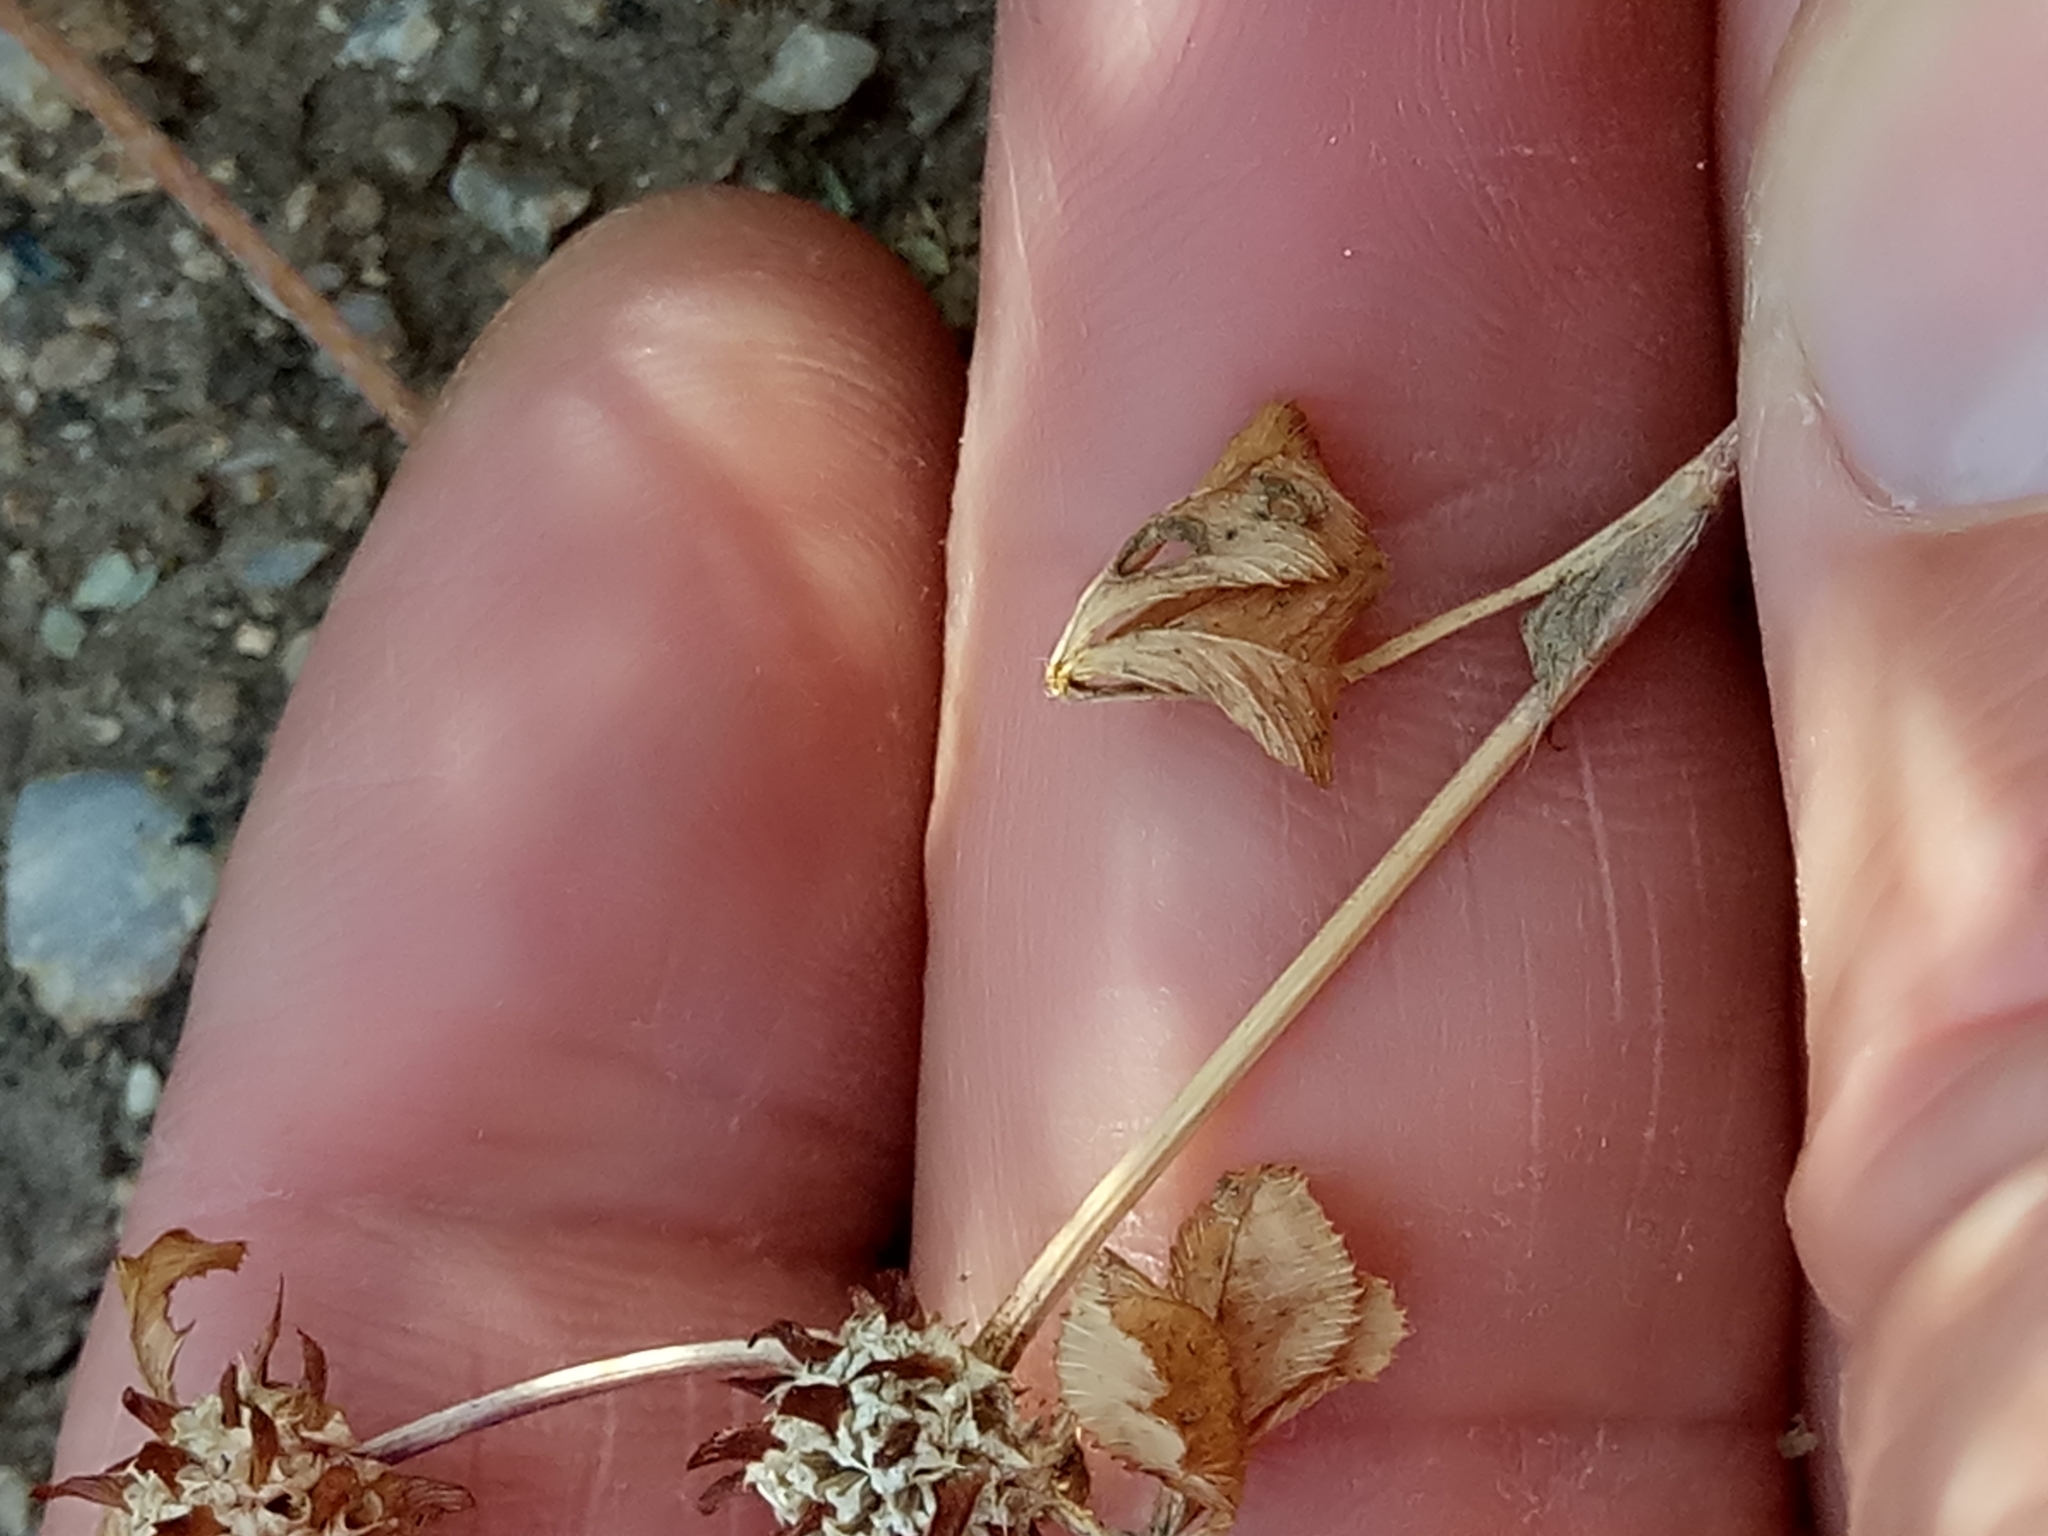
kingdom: Plantae
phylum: Tracheophyta
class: Magnoliopsida
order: Fabales
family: Fabaceae
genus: Trifolium
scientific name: Trifolium glomeratum
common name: Clustered clover
